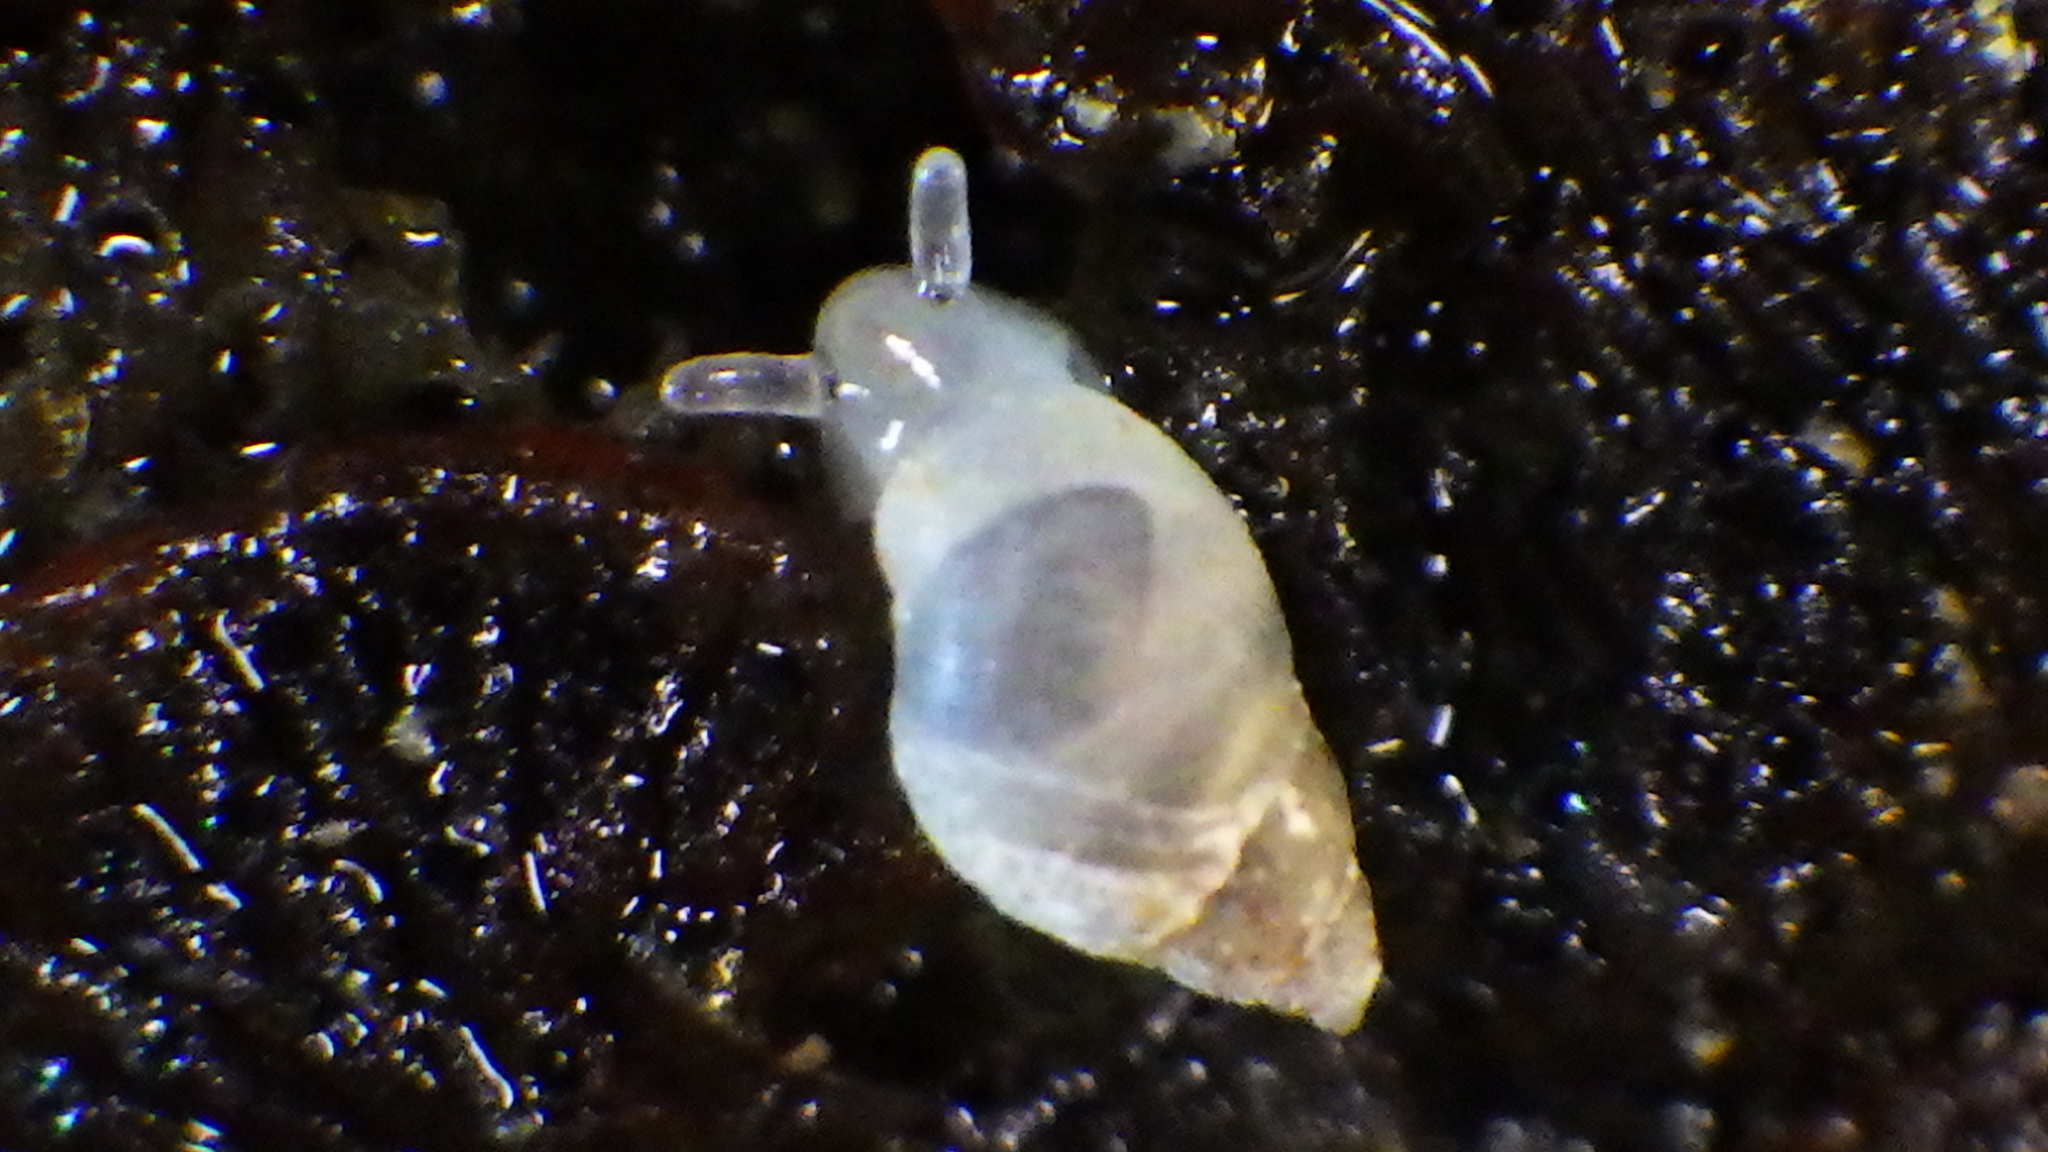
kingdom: Animalia
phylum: Mollusca
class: Gastropoda
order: Ellobiida
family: Ellobiidae
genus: Leuconopsis
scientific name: Leuconopsis obsoleta
